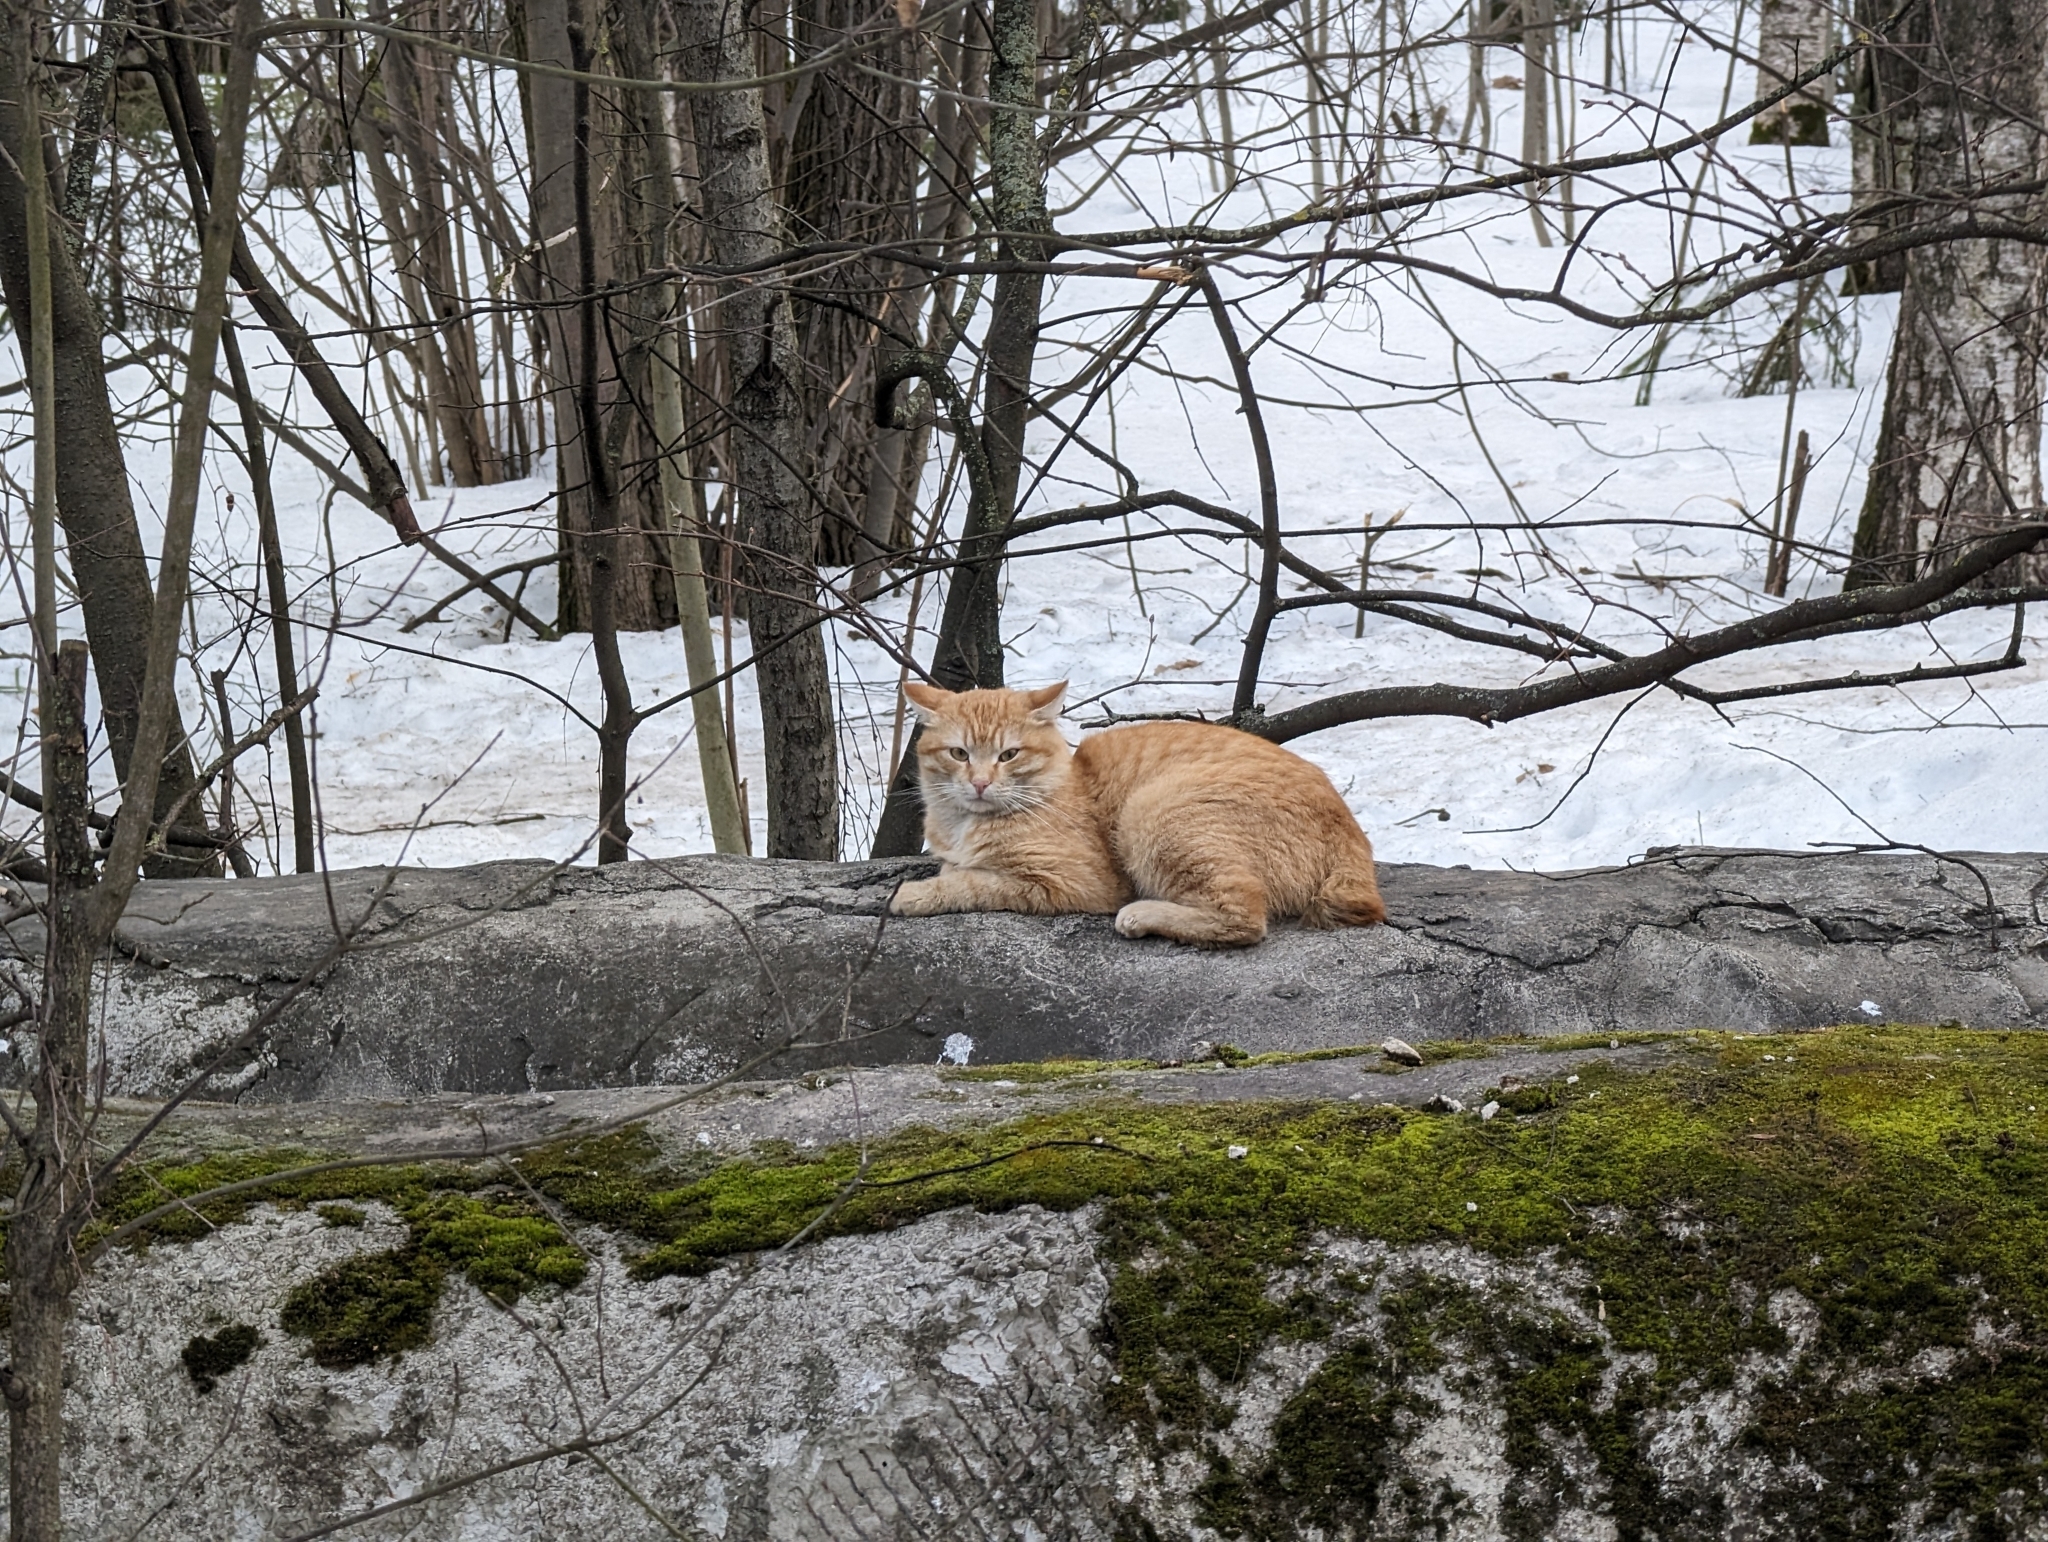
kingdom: Animalia
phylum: Chordata
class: Mammalia
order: Carnivora
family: Felidae
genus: Felis
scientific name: Felis catus
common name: Domestic cat
